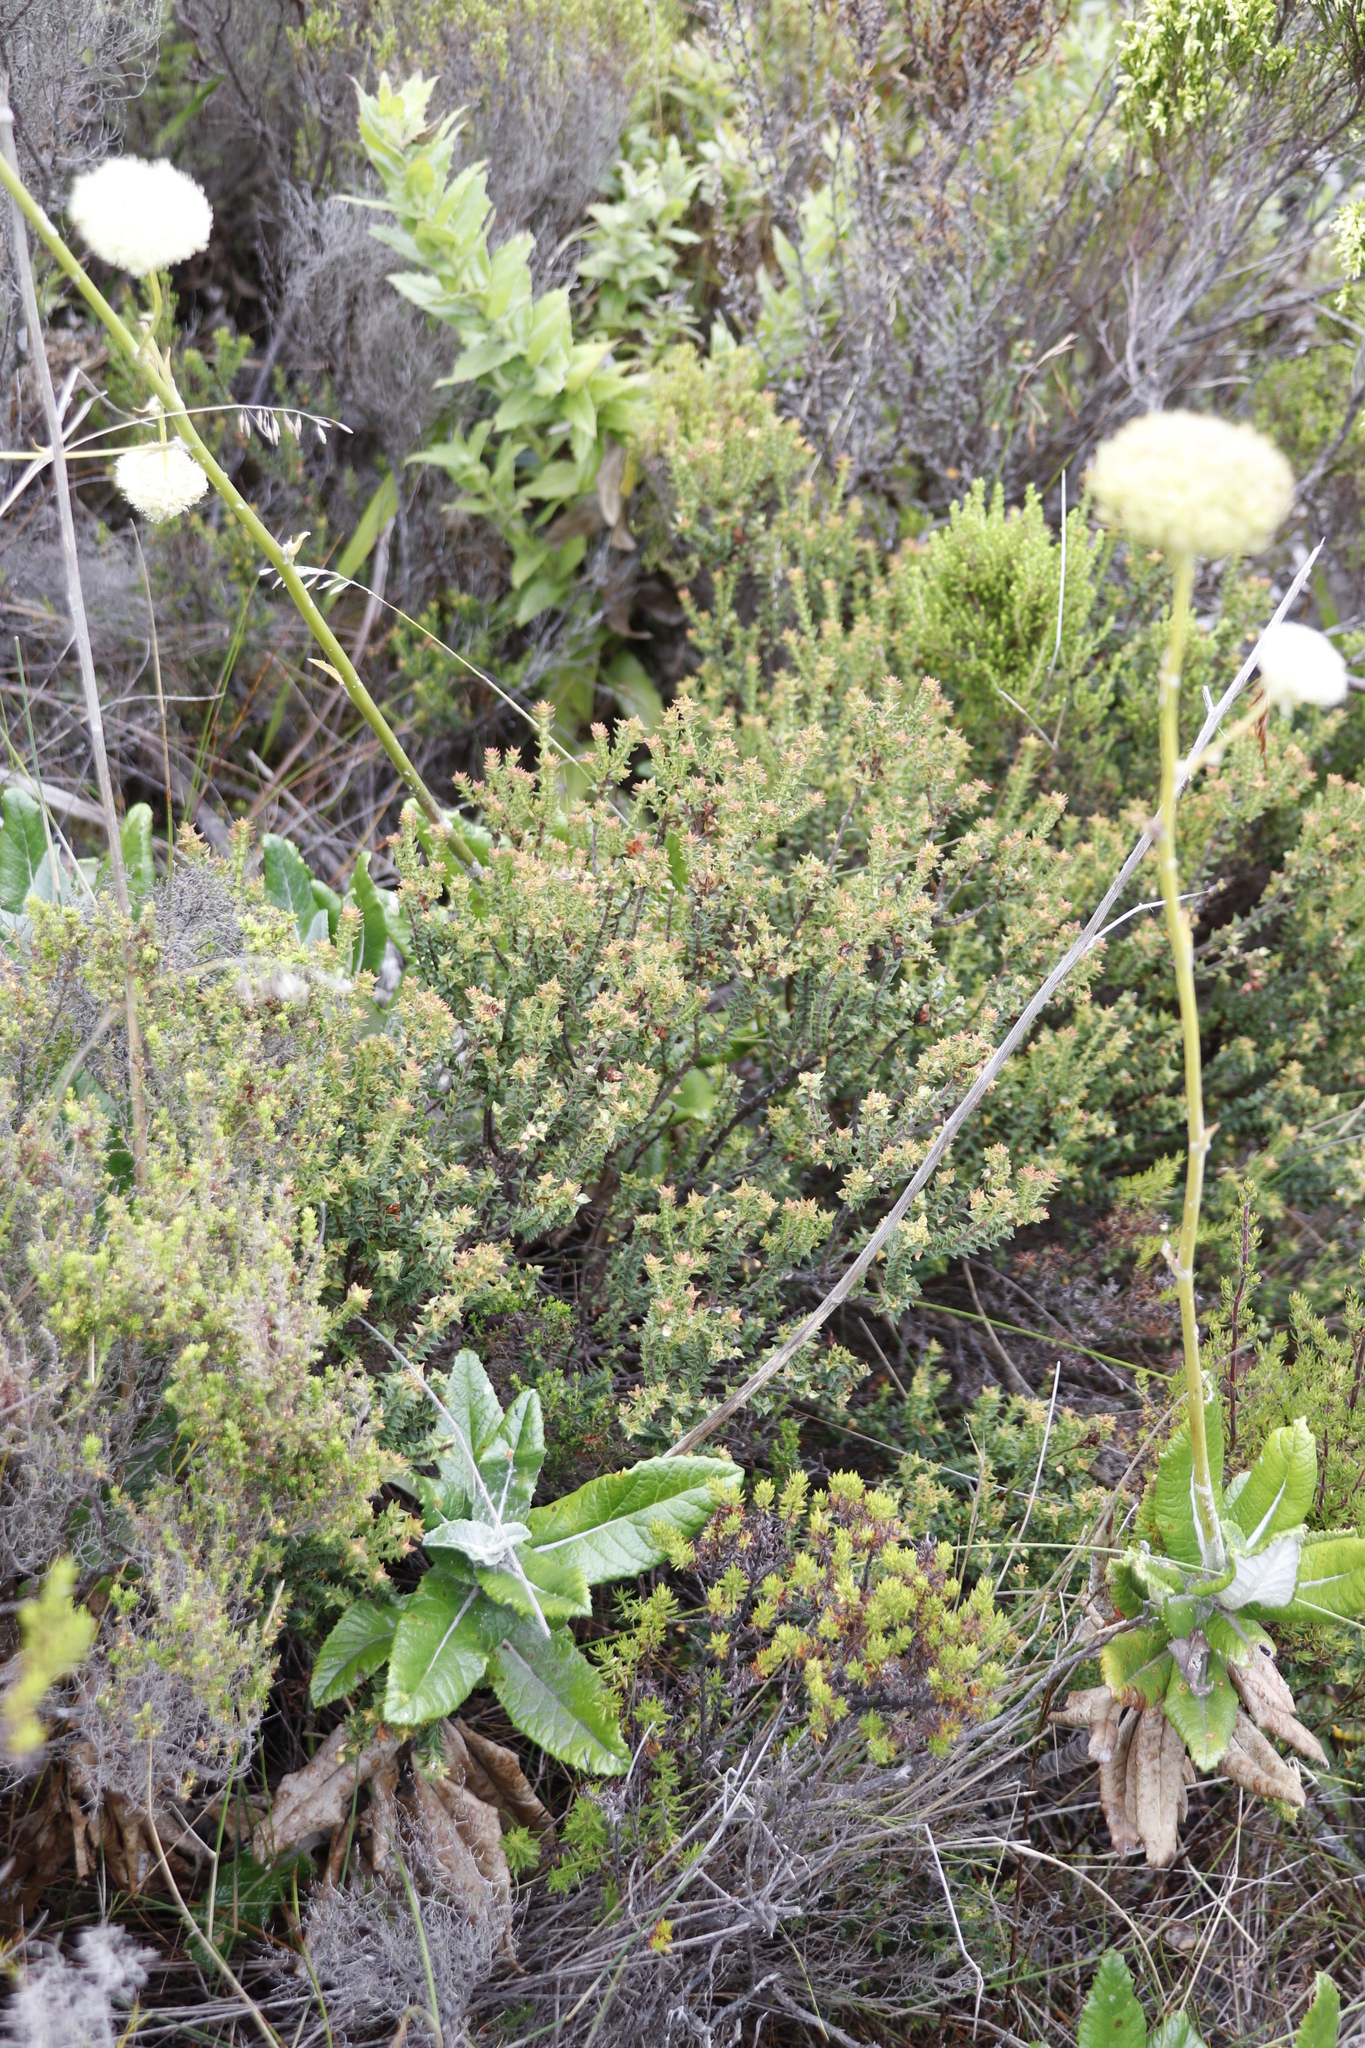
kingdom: Plantae
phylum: Tracheophyta
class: Magnoliopsida
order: Myrtales
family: Penaeaceae
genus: Penaea
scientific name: Penaea mucronata
